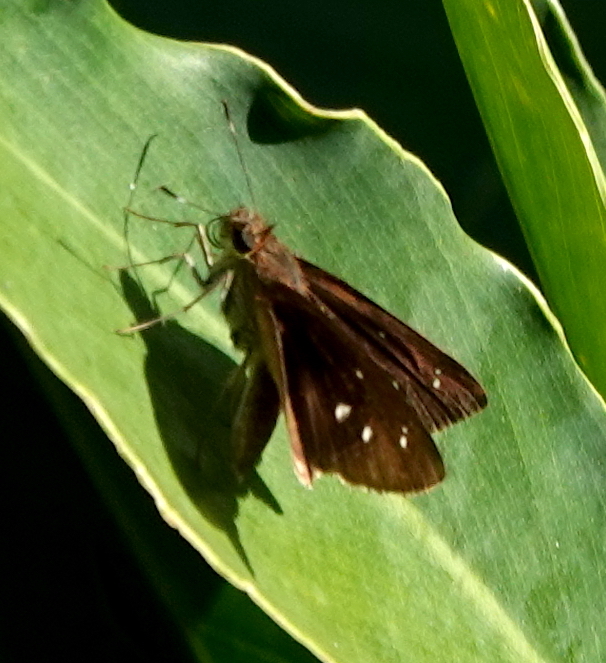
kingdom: Animalia
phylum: Arthropoda
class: Insecta
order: Lepidoptera
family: Hesperiidae
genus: Cobalopsis
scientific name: Cobalopsis nero
